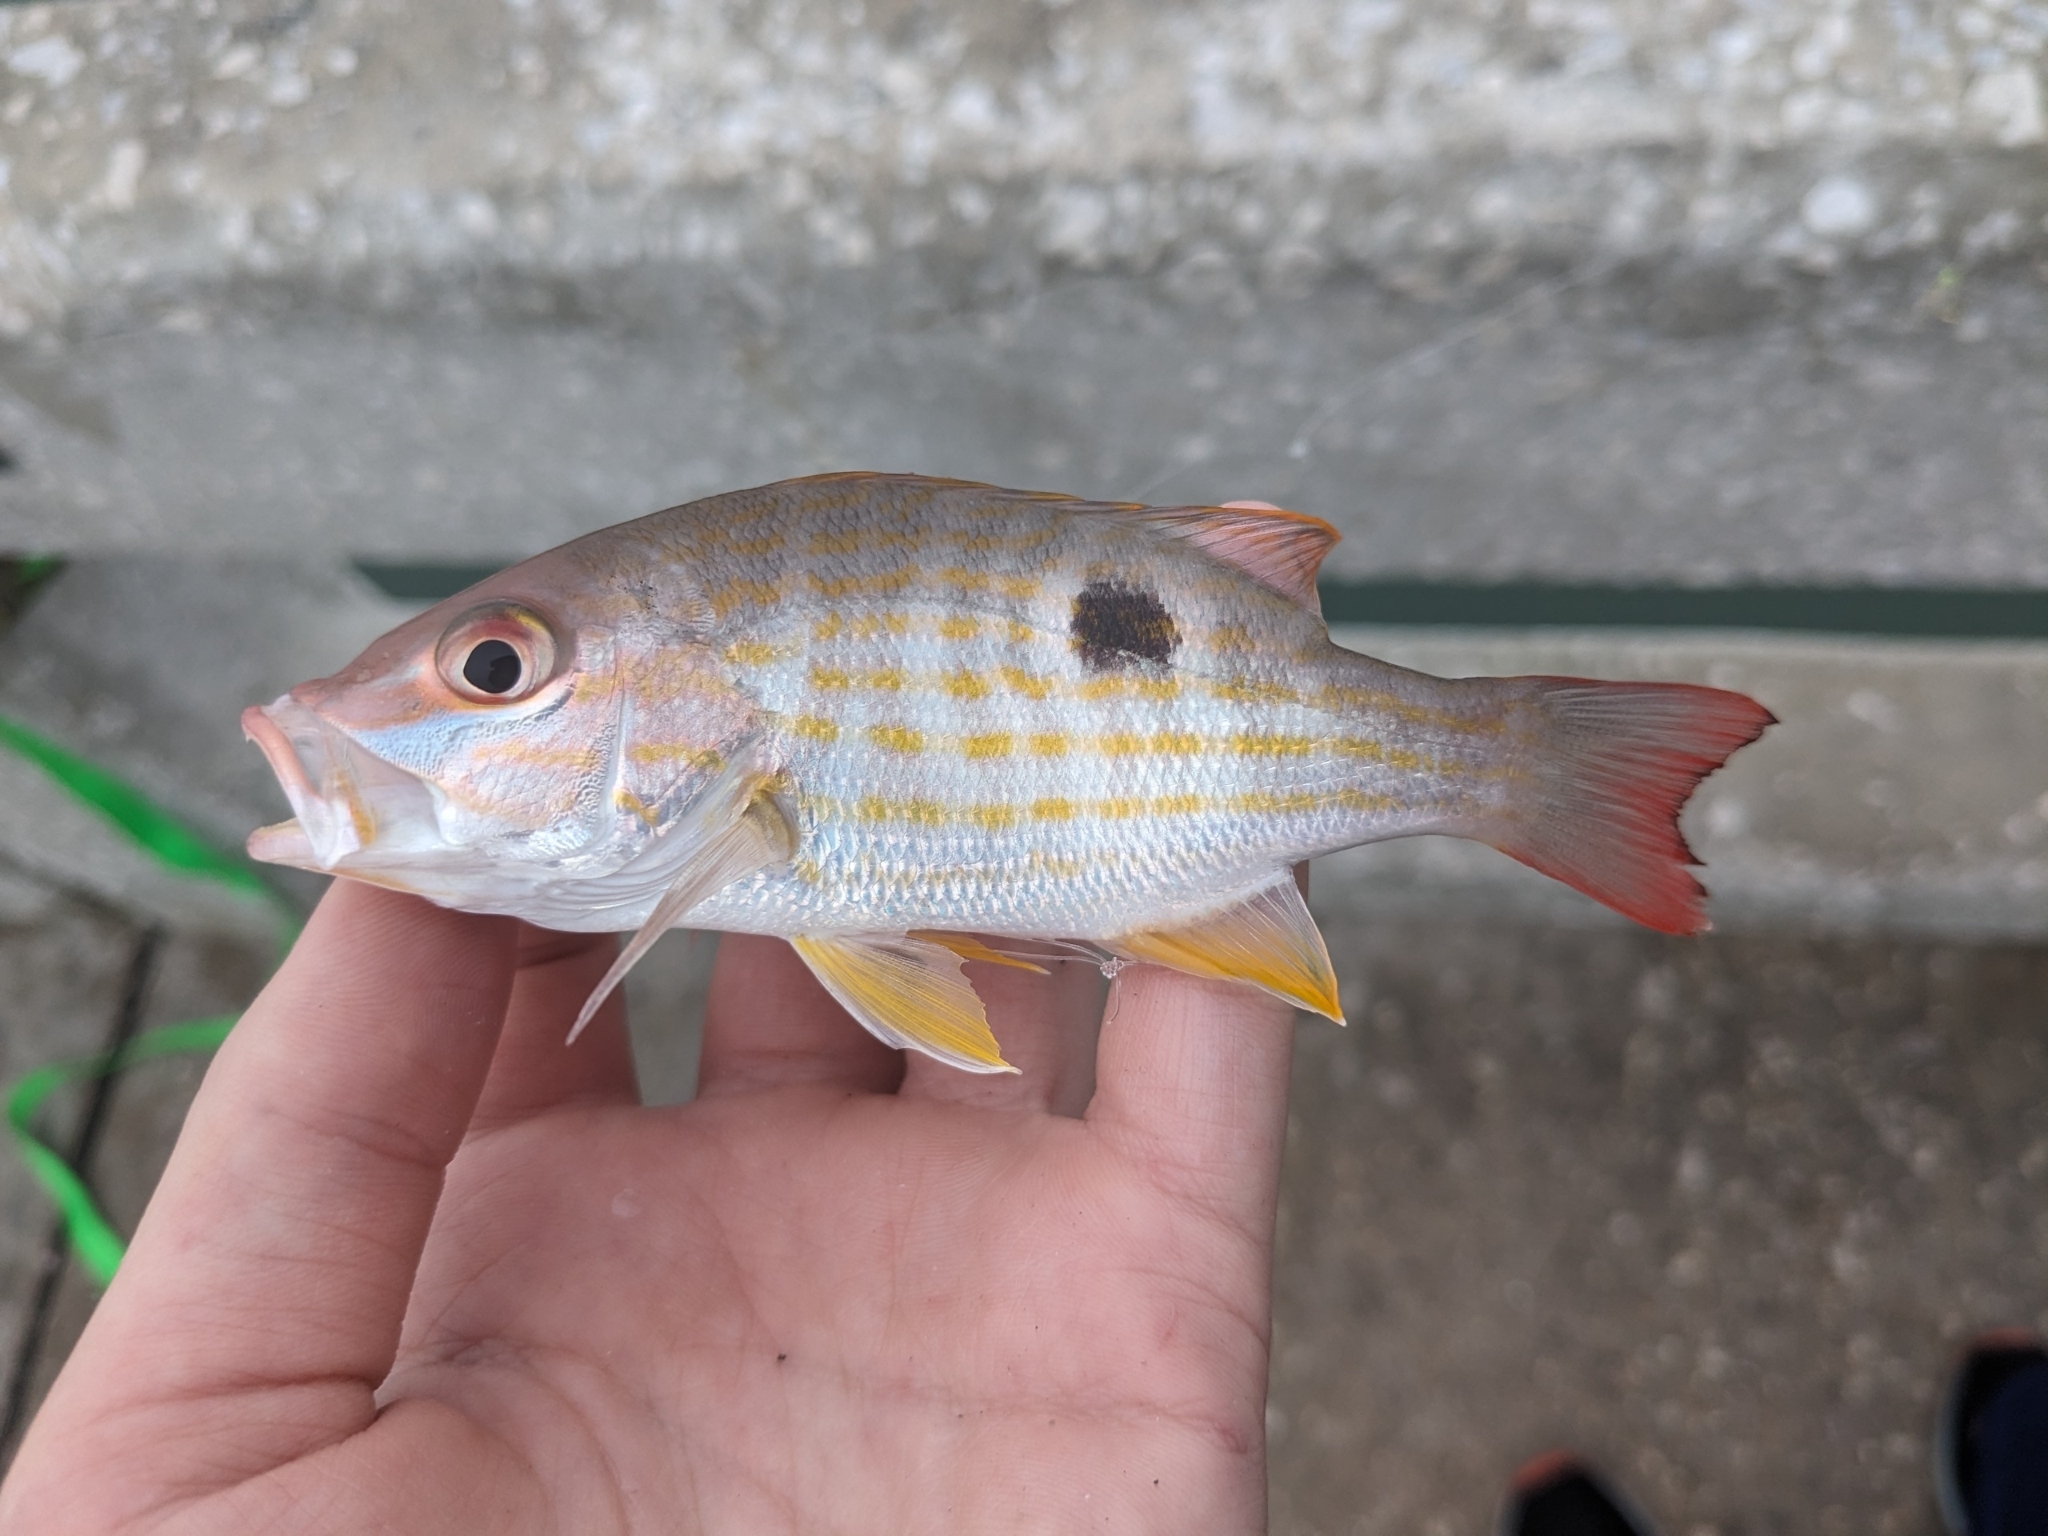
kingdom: Animalia
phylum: Chordata
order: Perciformes
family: Lutjanidae
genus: Lutjanus
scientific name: Lutjanus synagris
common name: Lane snapper
